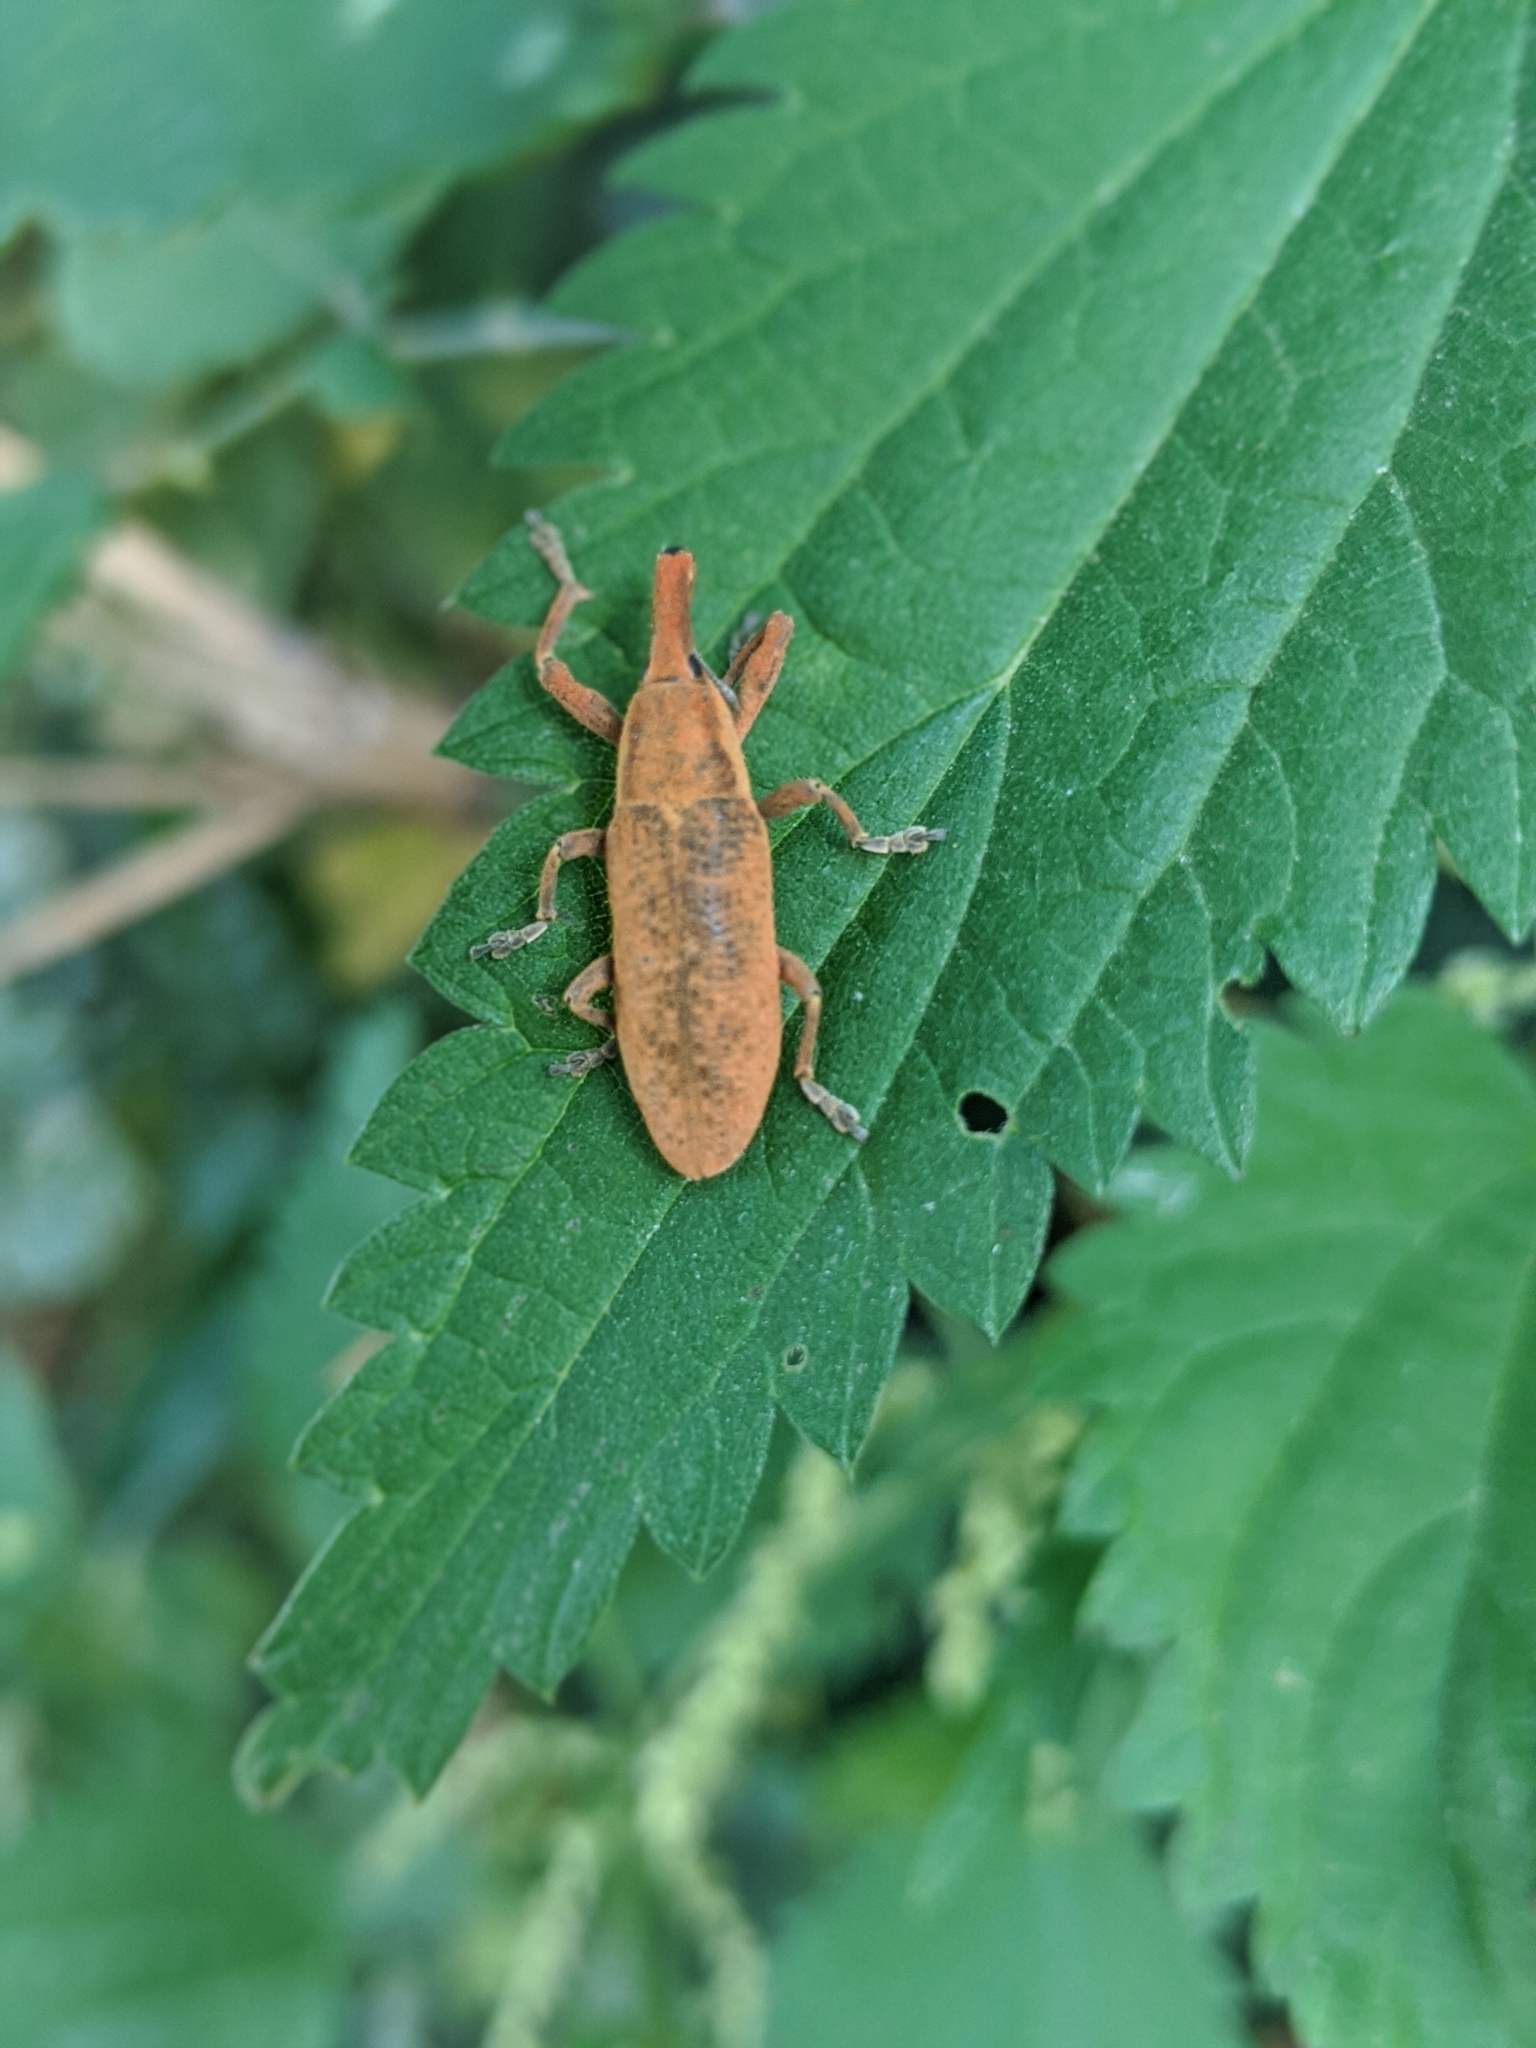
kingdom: Animalia
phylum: Arthropoda
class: Insecta
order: Coleoptera
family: Curculionidae
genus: Lixus
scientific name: Lixus pulverulentus
